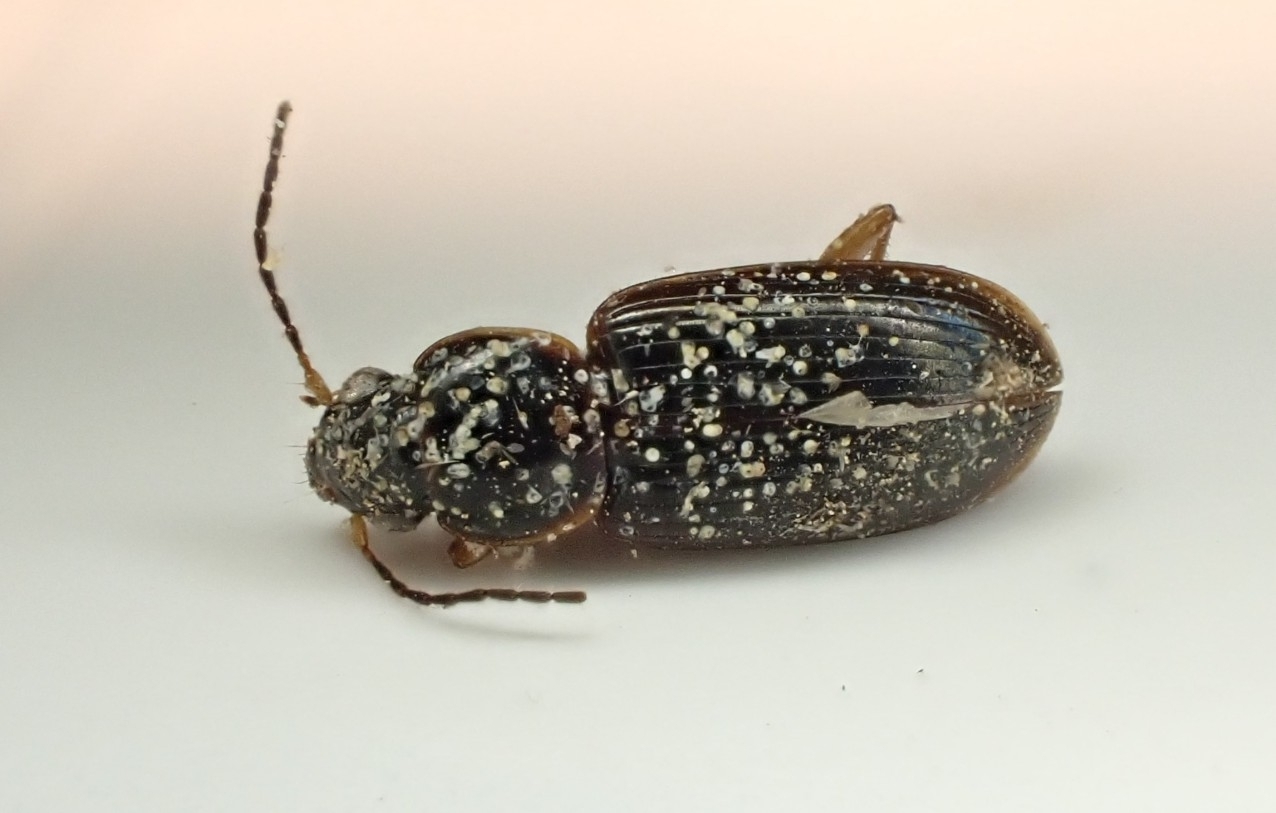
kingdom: Animalia
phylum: Arthropoda
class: Insecta
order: Coleoptera
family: Carabidae
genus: Stenolophus
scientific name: Stenolophus ochropezus
